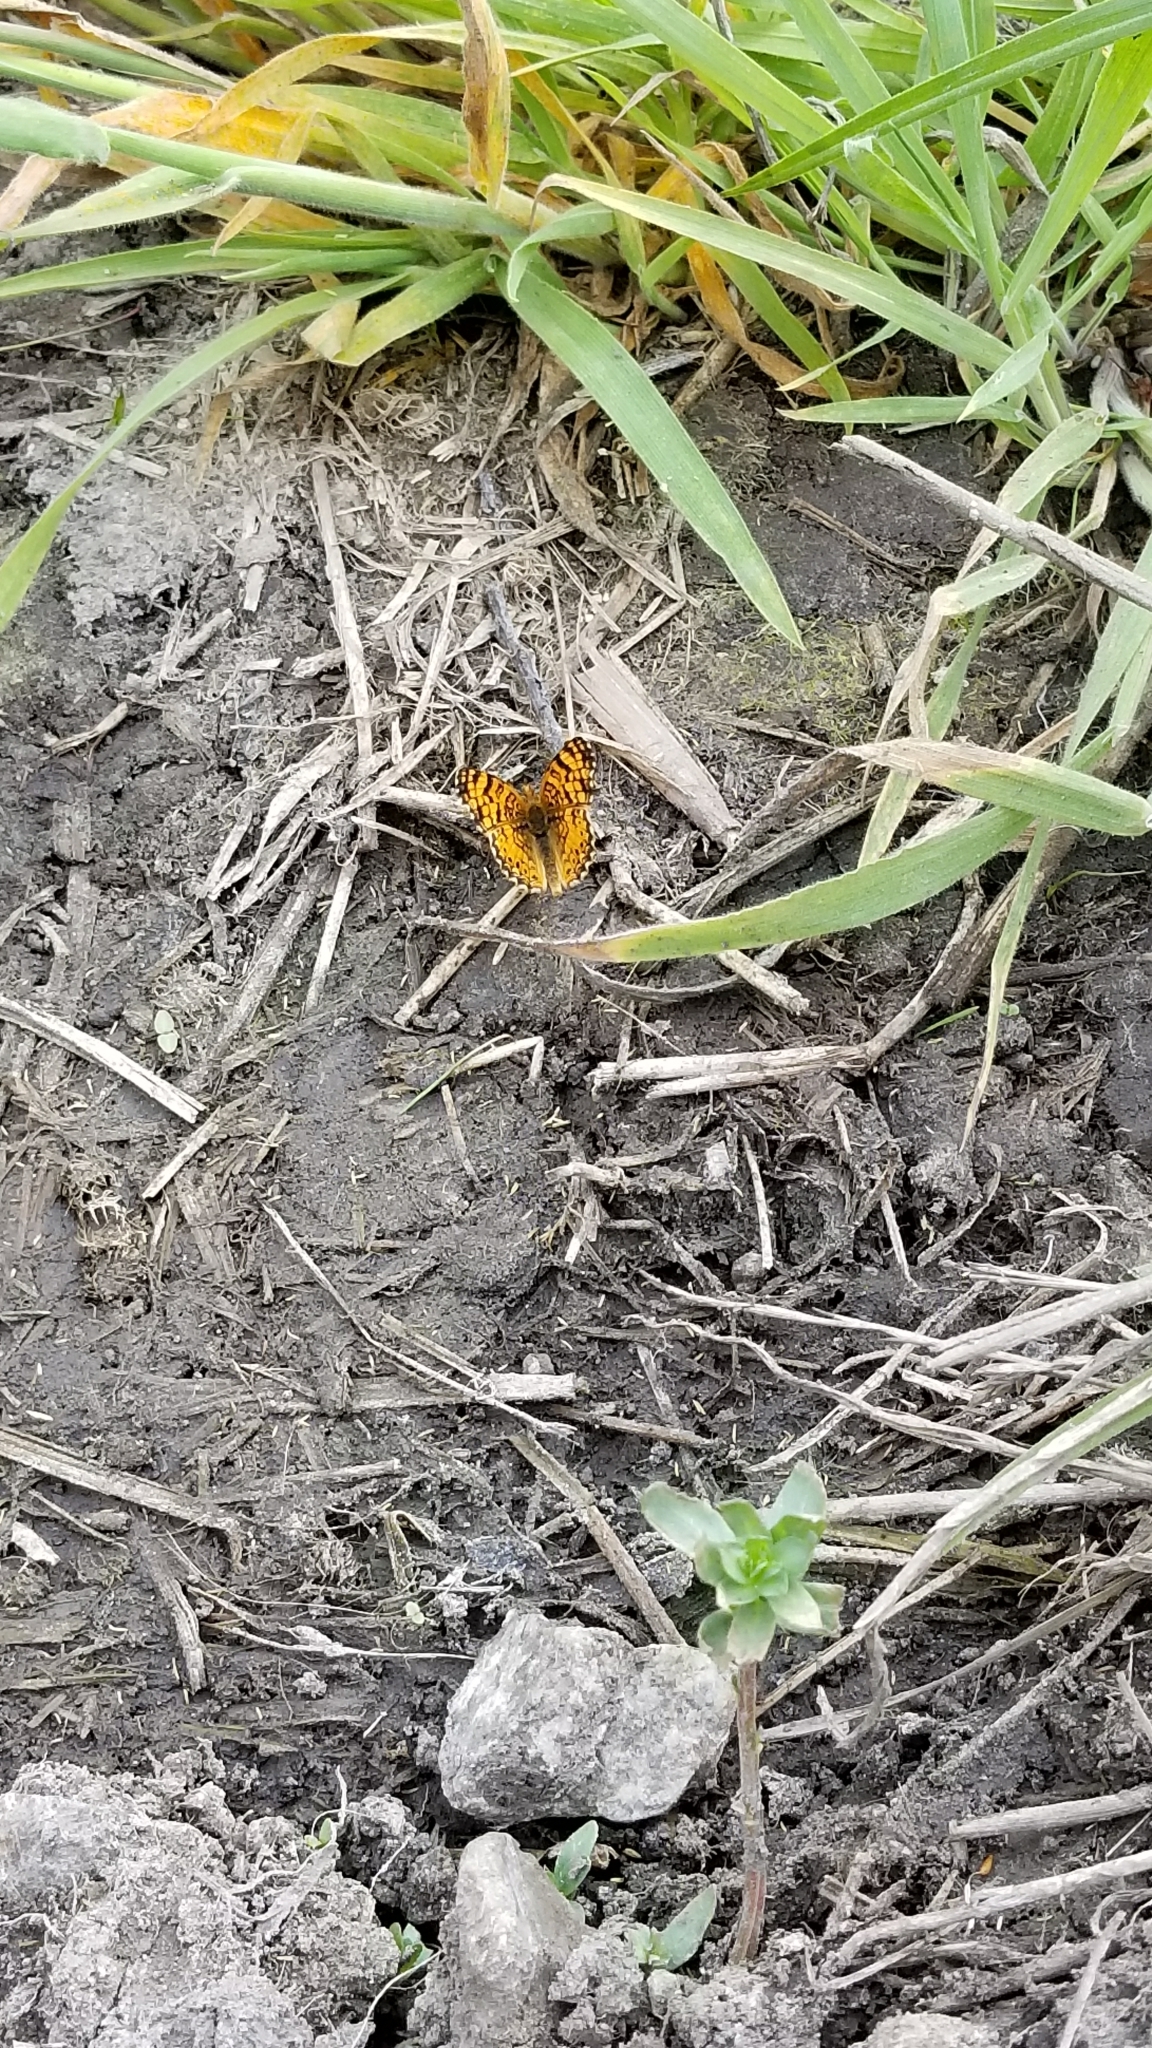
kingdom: Animalia
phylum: Arthropoda
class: Insecta
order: Lepidoptera
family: Nymphalidae
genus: Eresia
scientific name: Eresia aveyrona
